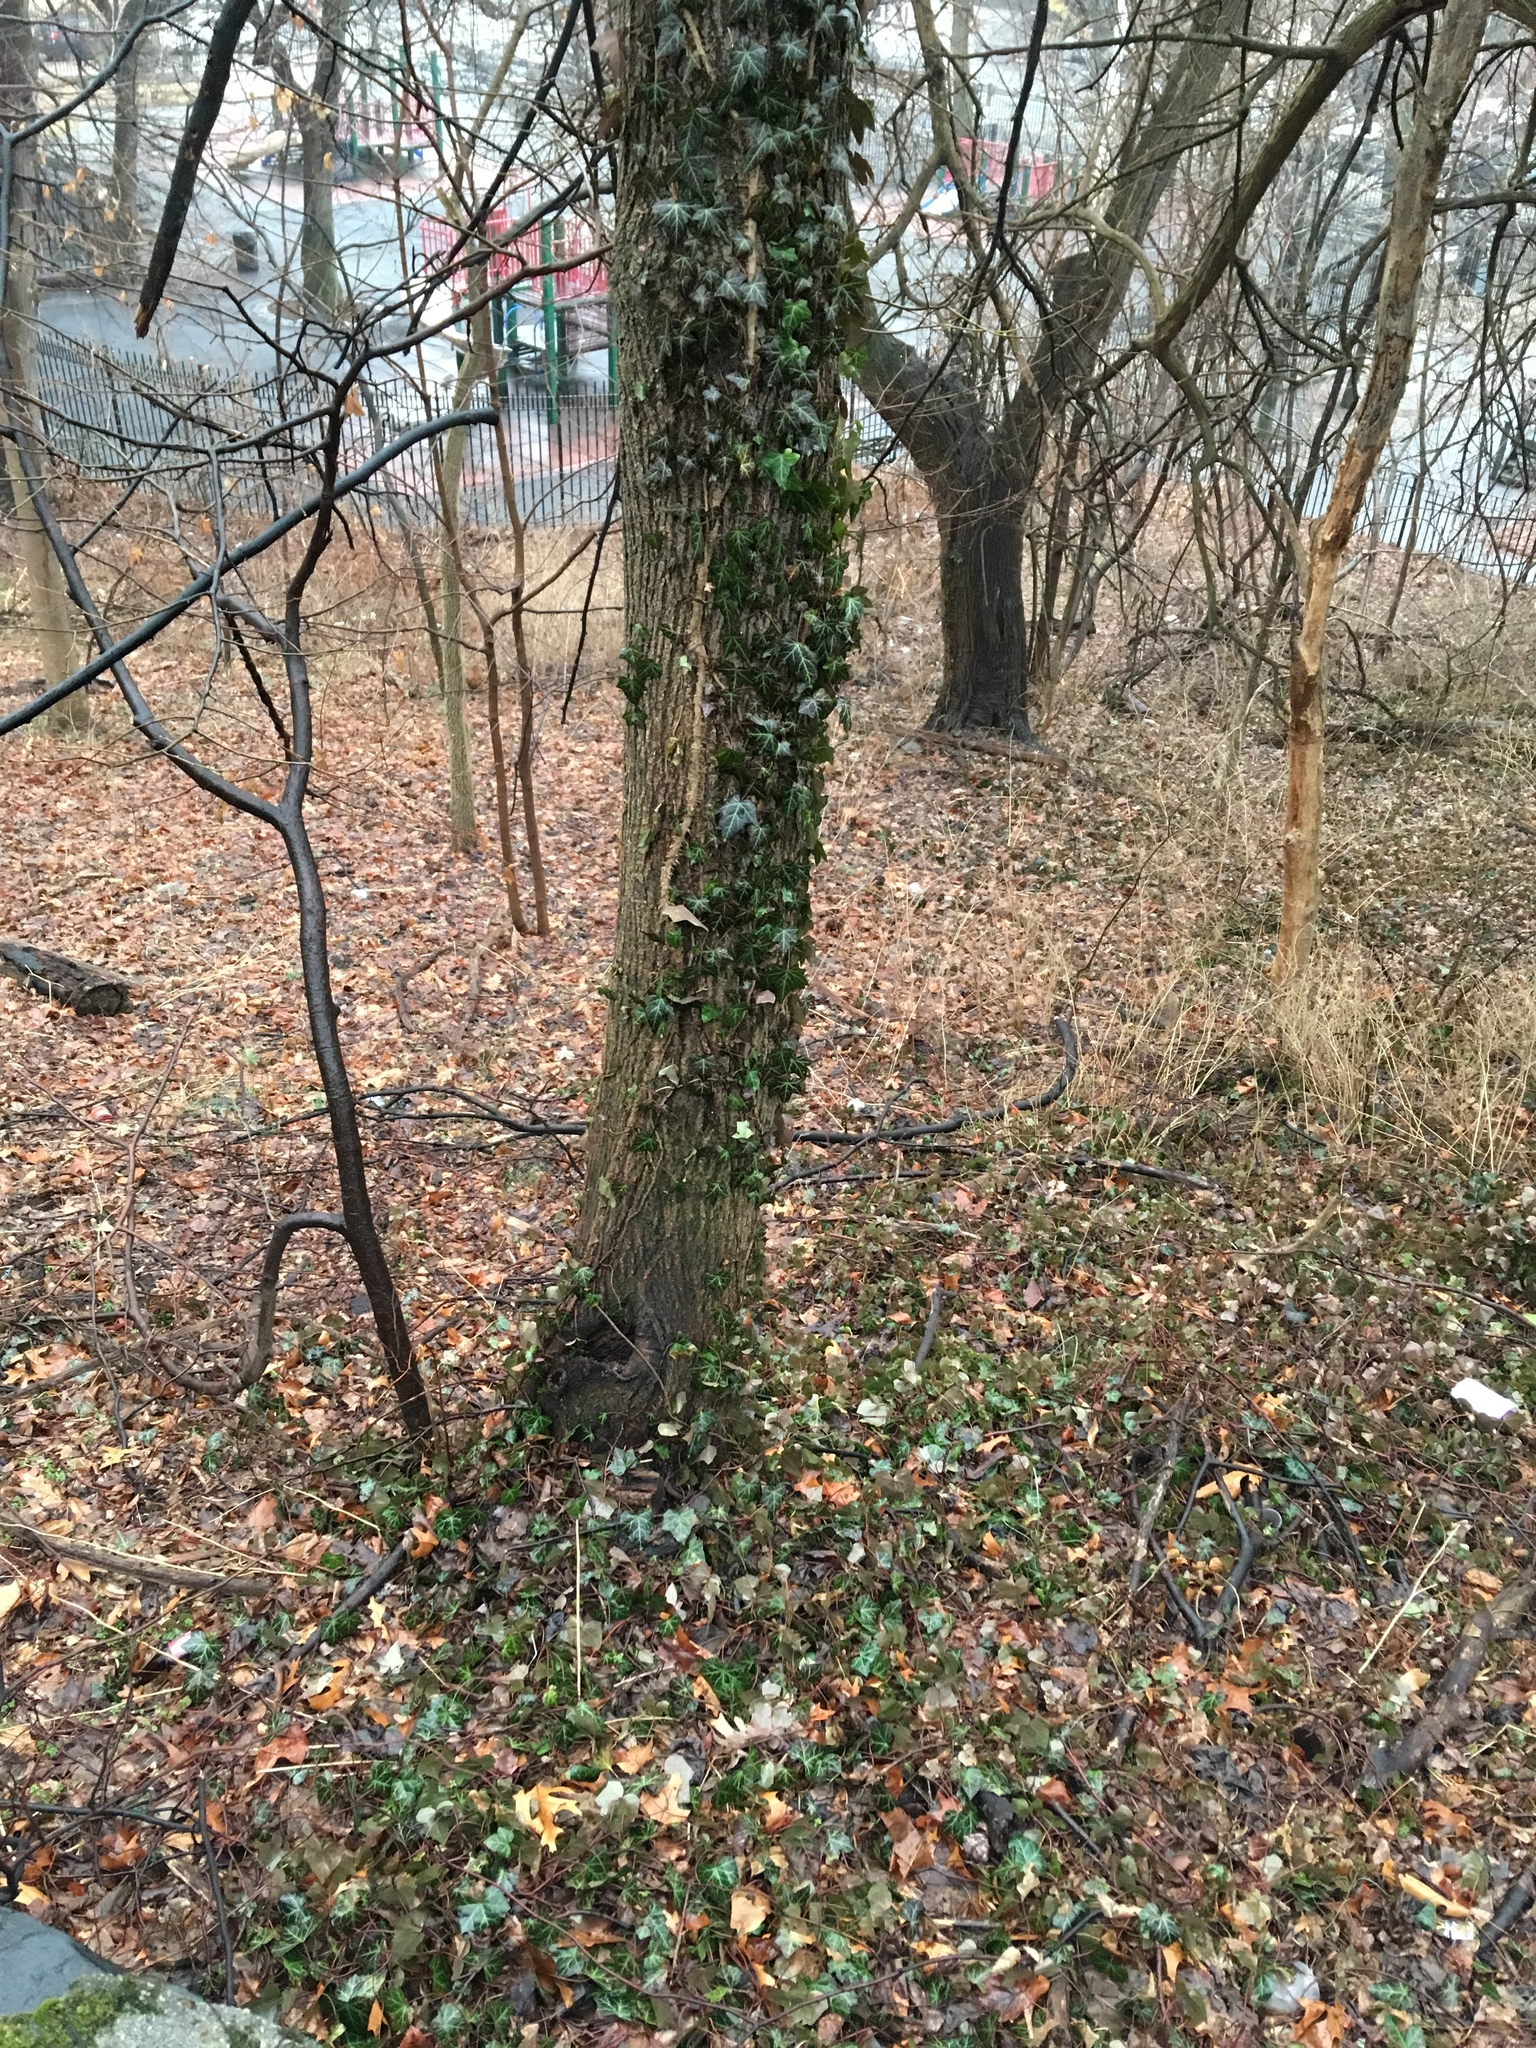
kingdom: Plantae
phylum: Tracheophyta
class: Magnoliopsida
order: Apiales
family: Araliaceae
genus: Hedera
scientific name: Hedera helix
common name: Ivy
